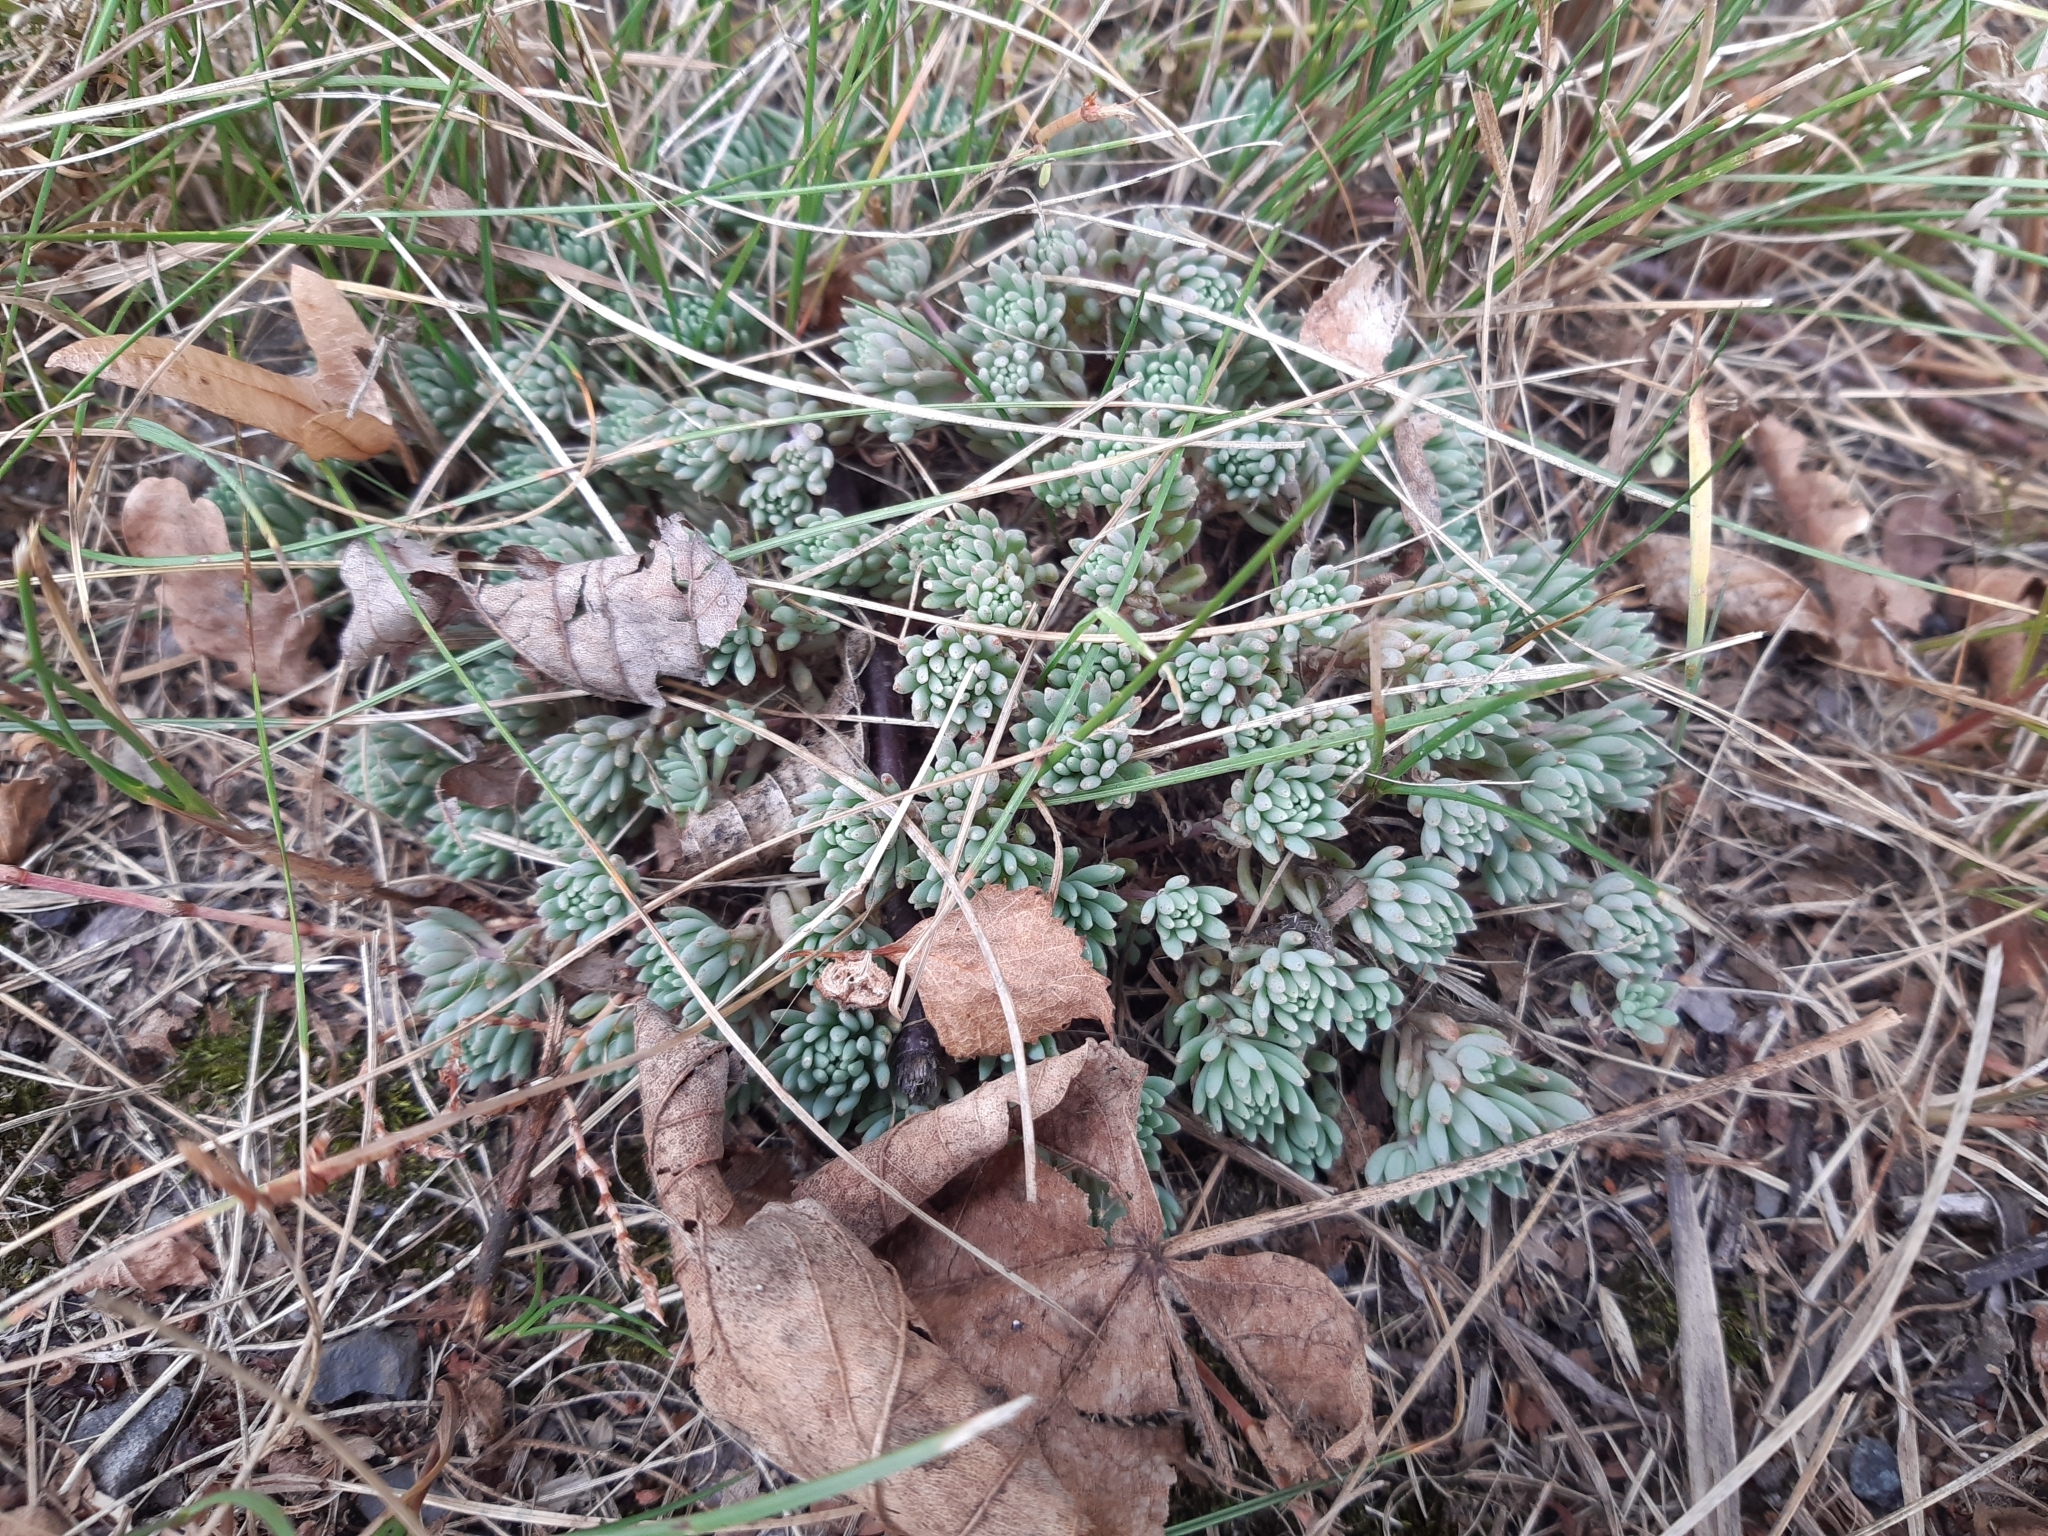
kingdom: Plantae
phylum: Tracheophyta
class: Magnoliopsida
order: Saxifragales
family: Crassulaceae
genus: Sedum
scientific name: Sedum hispanicum
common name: Spanish stonecrop
